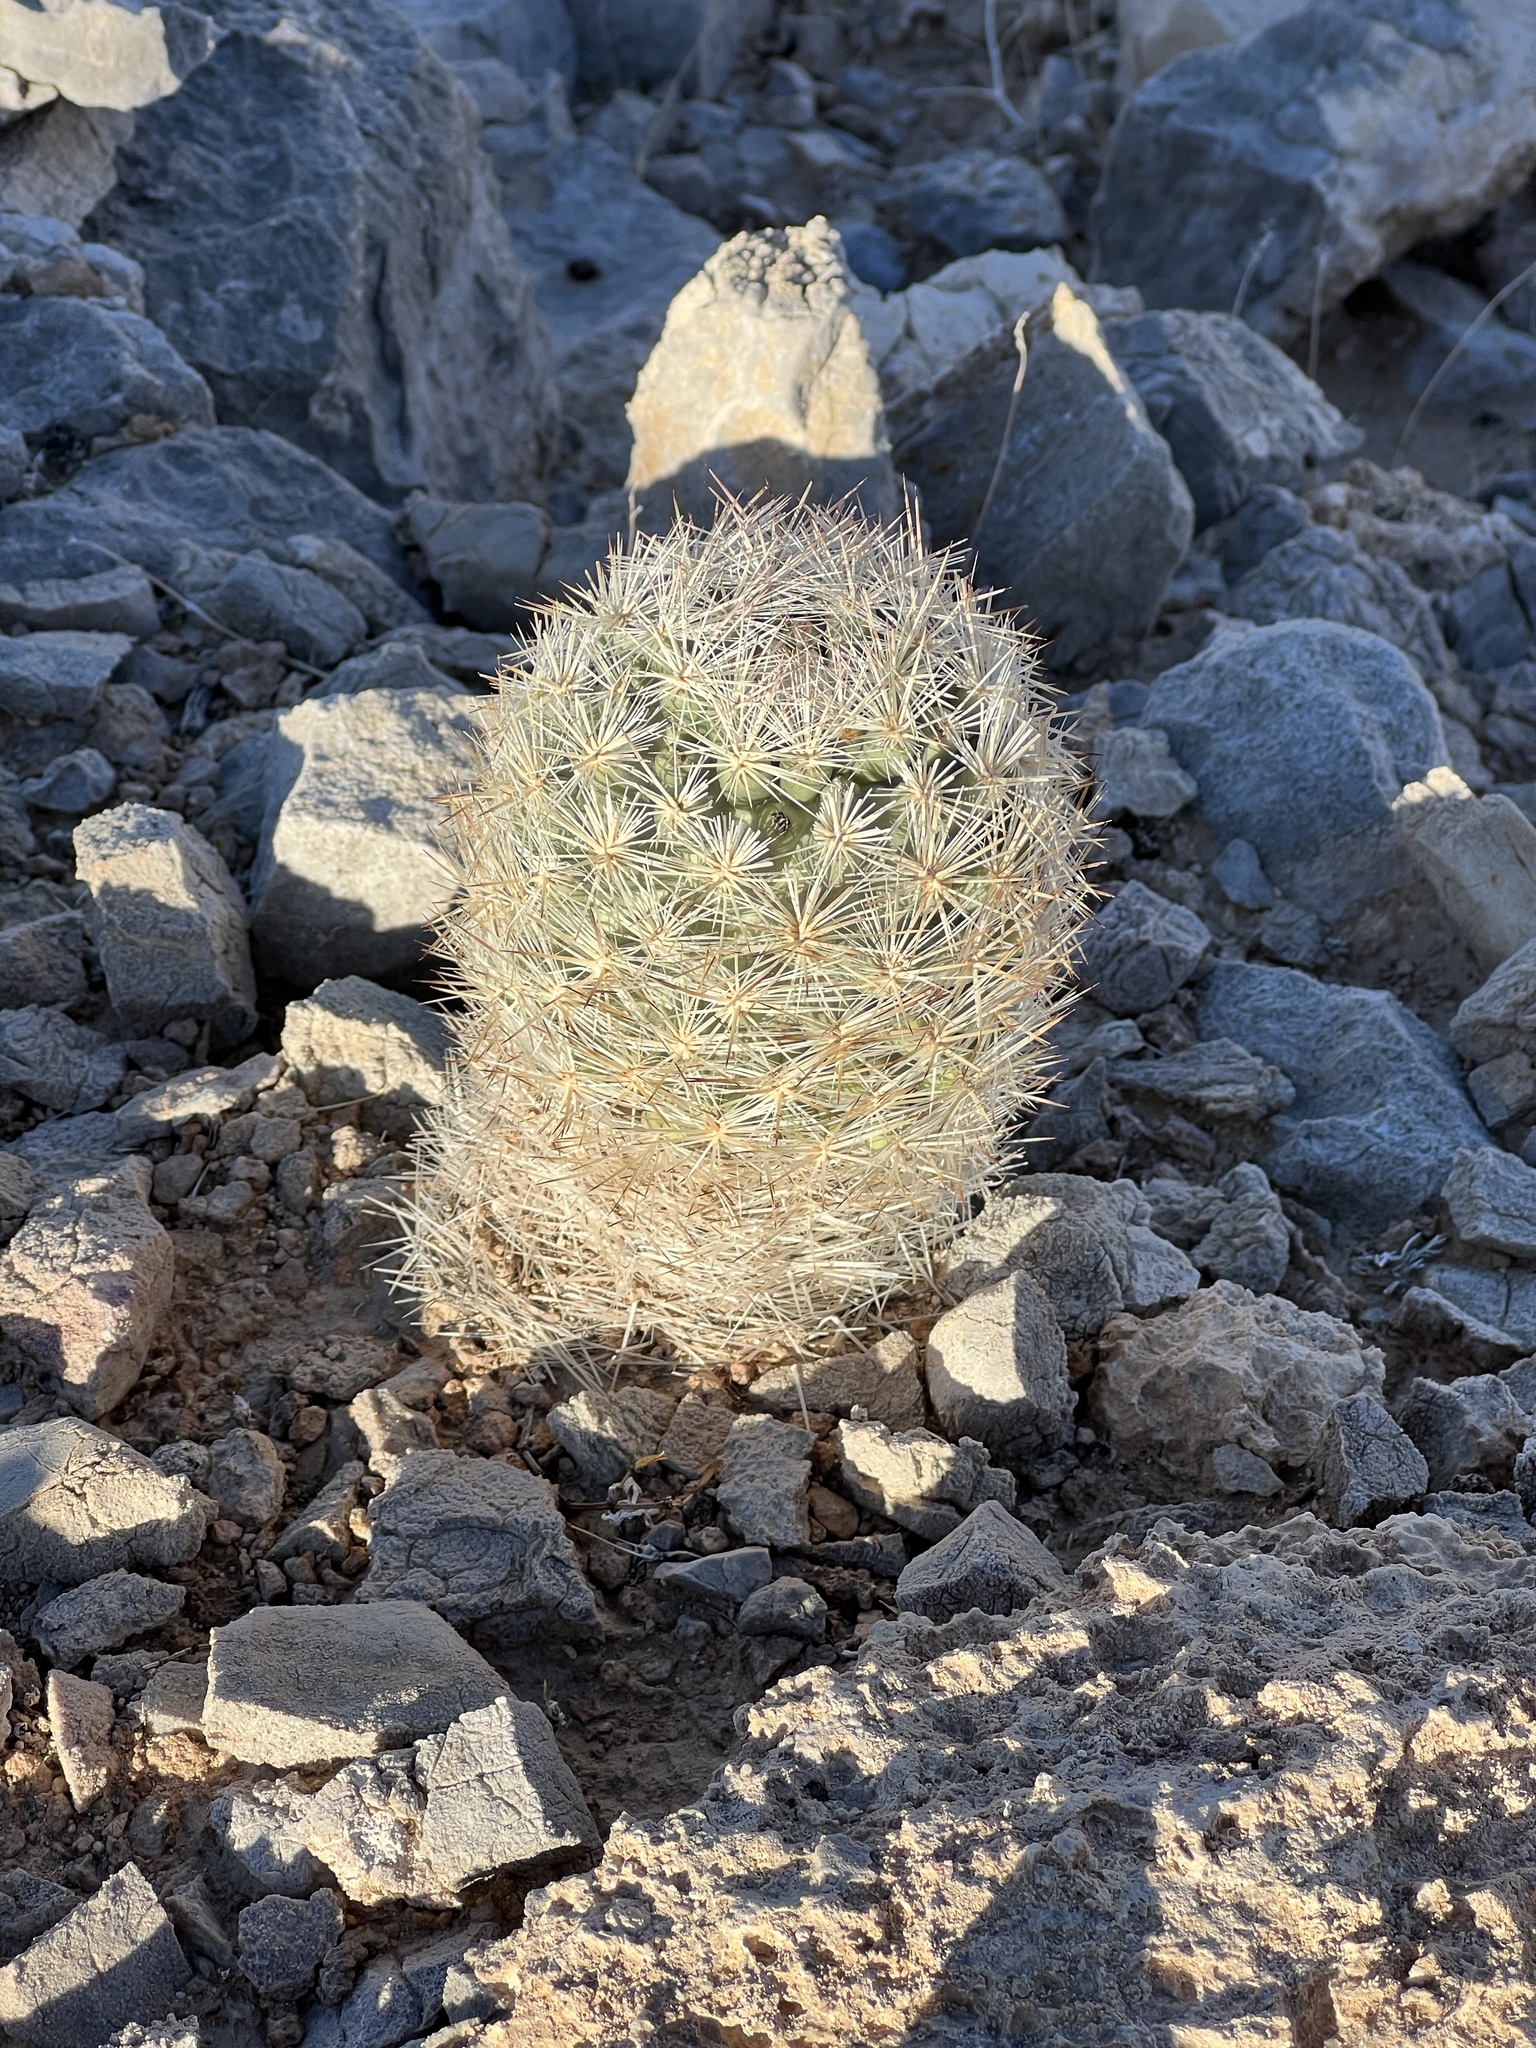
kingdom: Plantae
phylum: Tracheophyta
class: Magnoliopsida
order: Caryophyllales
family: Cactaceae
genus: Pelecyphora
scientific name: Pelecyphora dasyacantha
